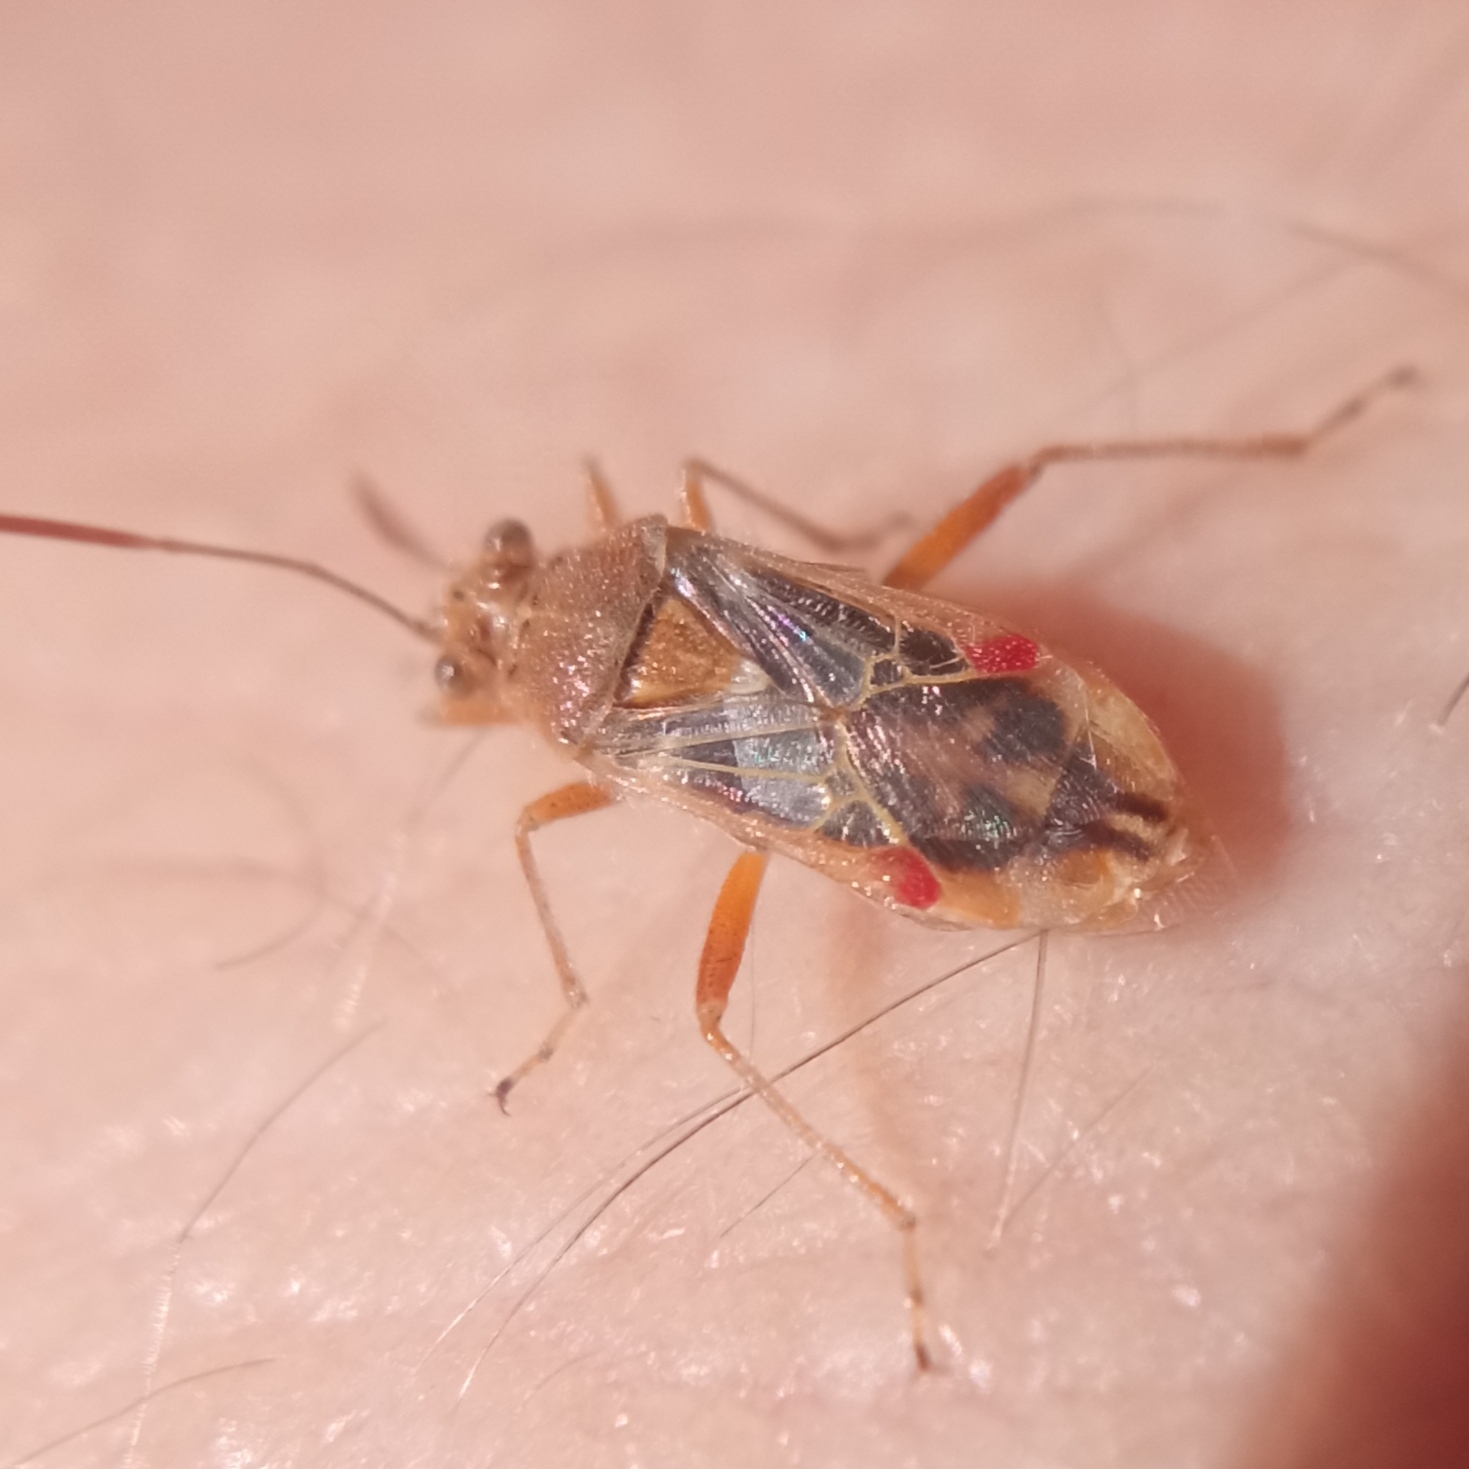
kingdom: Animalia
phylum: Arthropoda
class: Insecta
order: Hemiptera
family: Rhopalidae
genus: Liorhyssus
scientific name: Liorhyssus hyalinus
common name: Scentless plant bug
